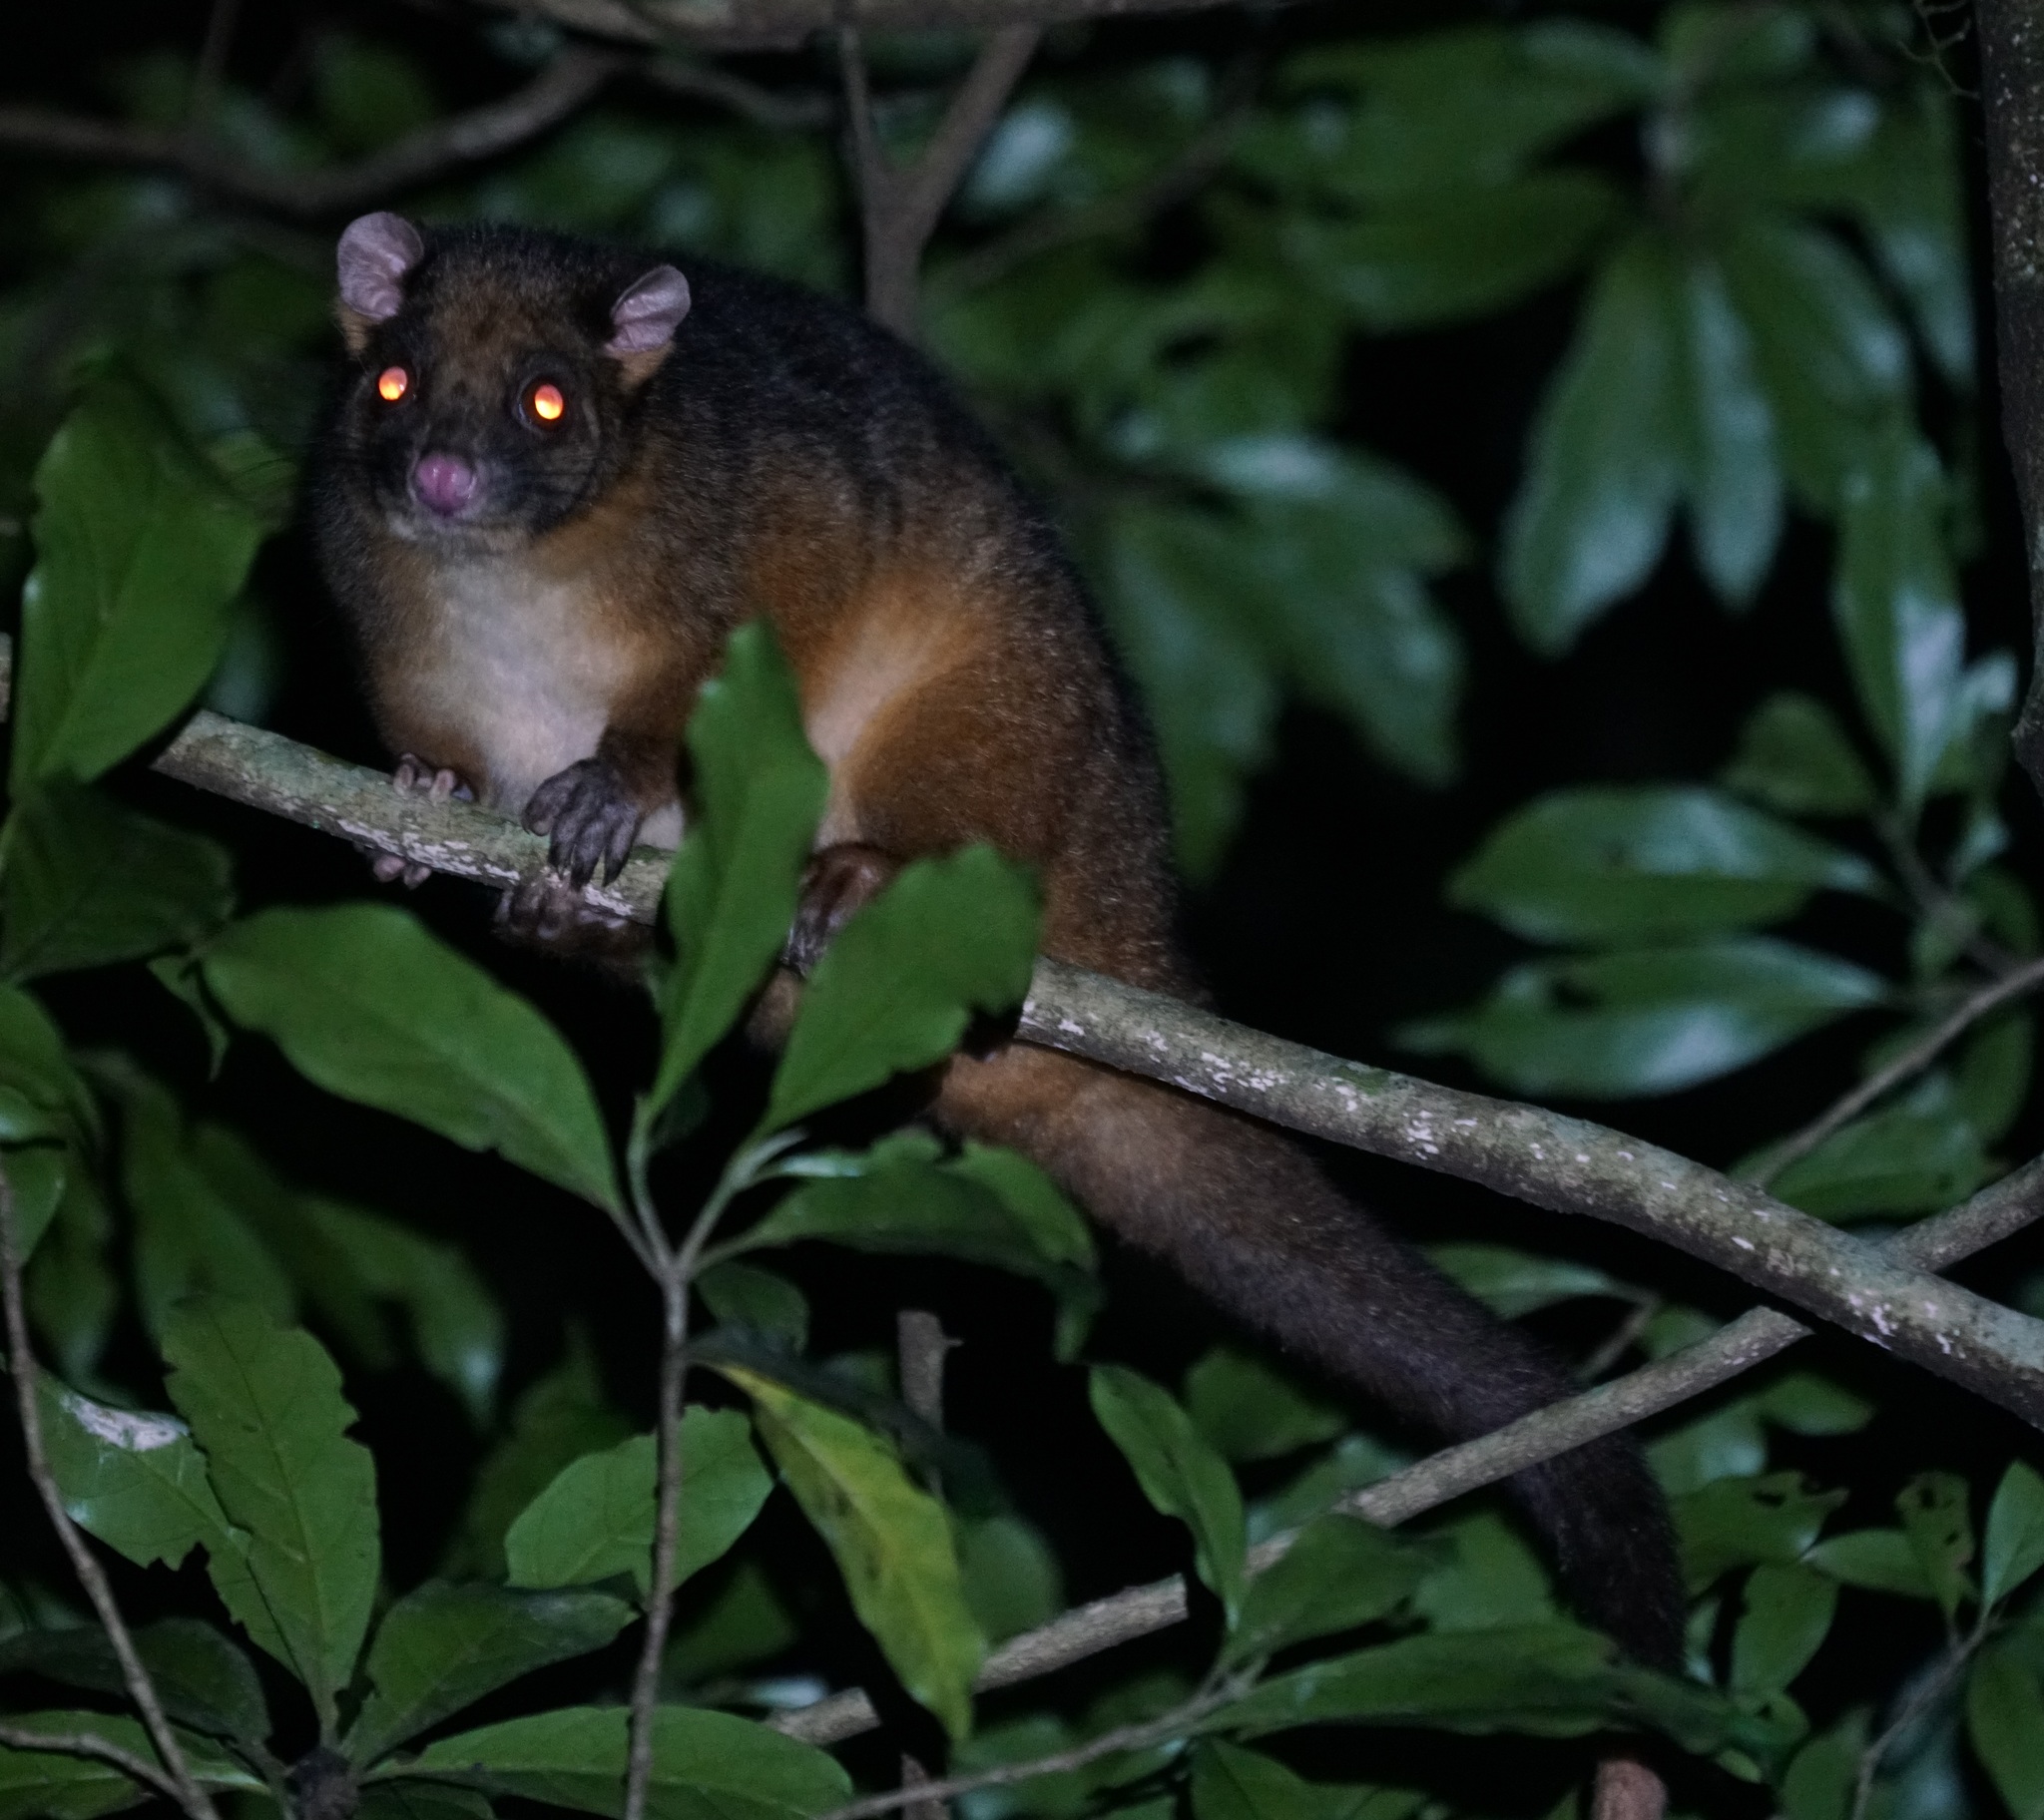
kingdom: Animalia
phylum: Chordata
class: Mammalia
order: Diprotodontia
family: Pseudocheiridae
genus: Pseudocheirus
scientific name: Pseudocheirus peregrinus
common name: Common ringtail possum
